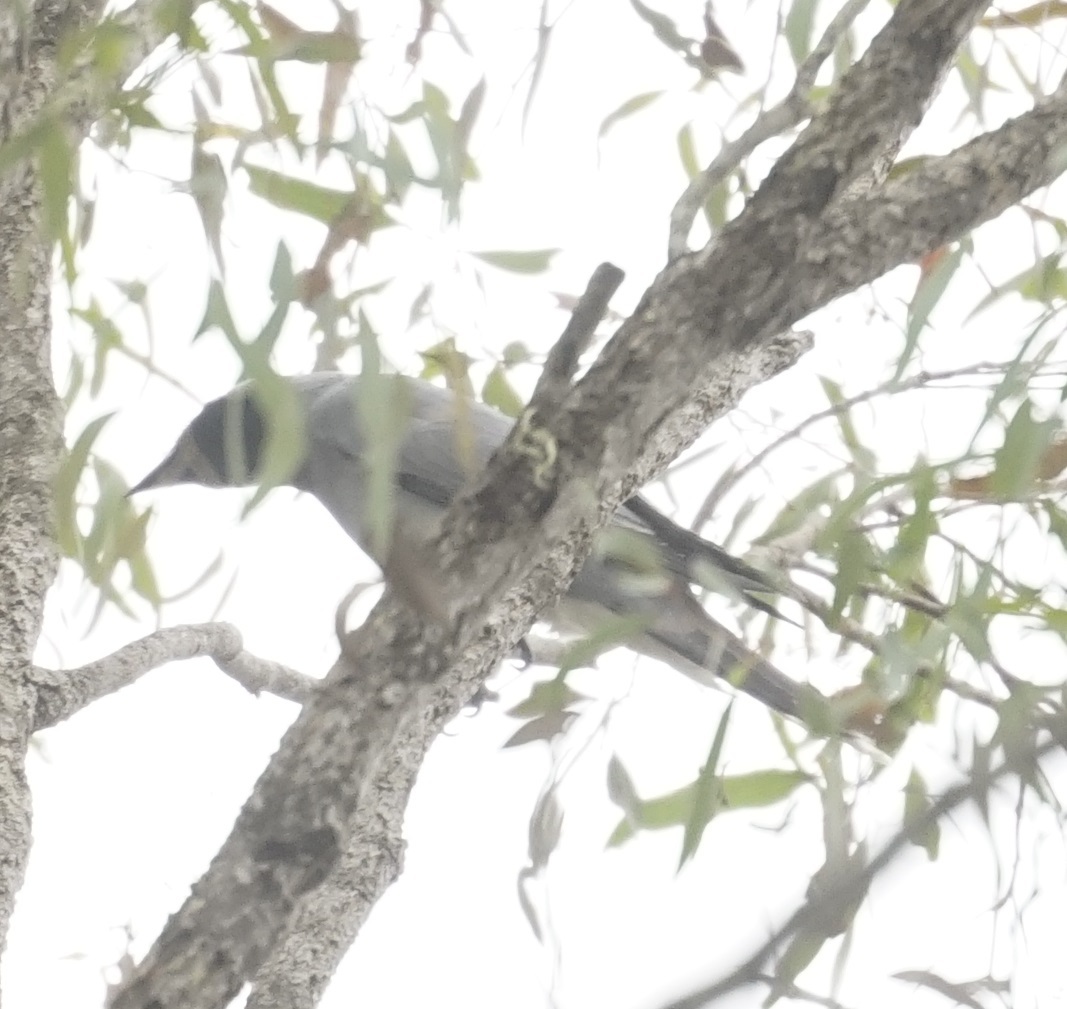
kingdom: Animalia
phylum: Chordata
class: Aves
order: Passeriformes
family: Campephagidae
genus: Coracina
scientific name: Coracina novaehollandiae
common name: Black-faced cuckooshrike
